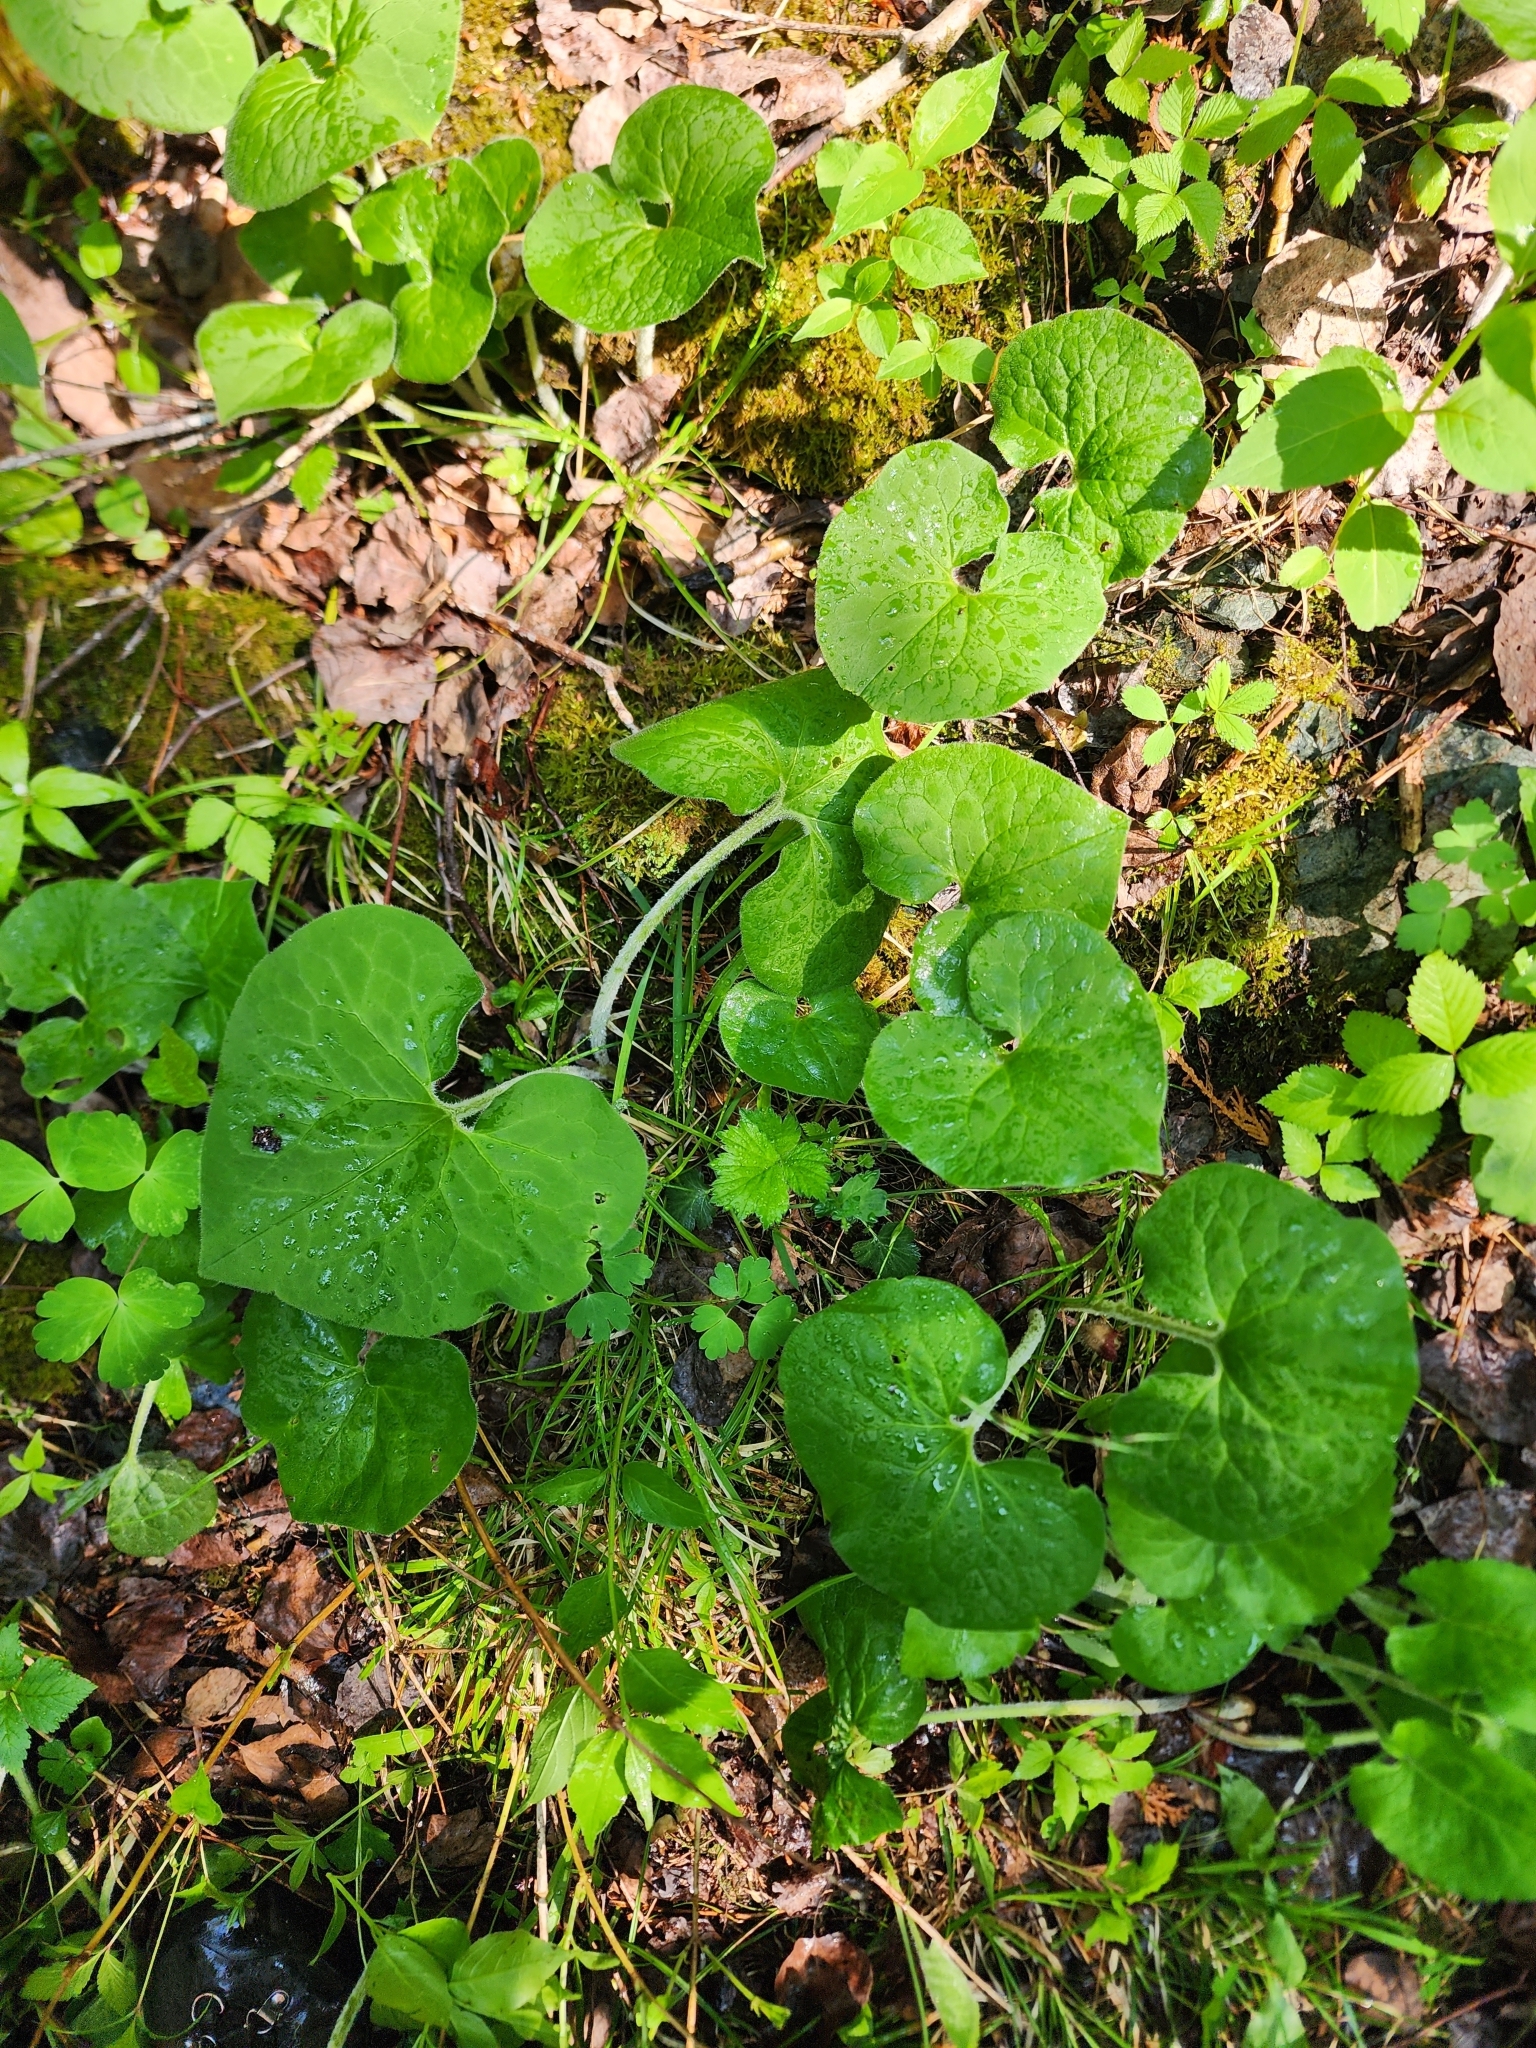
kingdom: Plantae
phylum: Tracheophyta
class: Magnoliopsida
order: Piperales
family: Aristolochiaceae
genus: Asarum
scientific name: Asarum canadense
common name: Wild ginger
